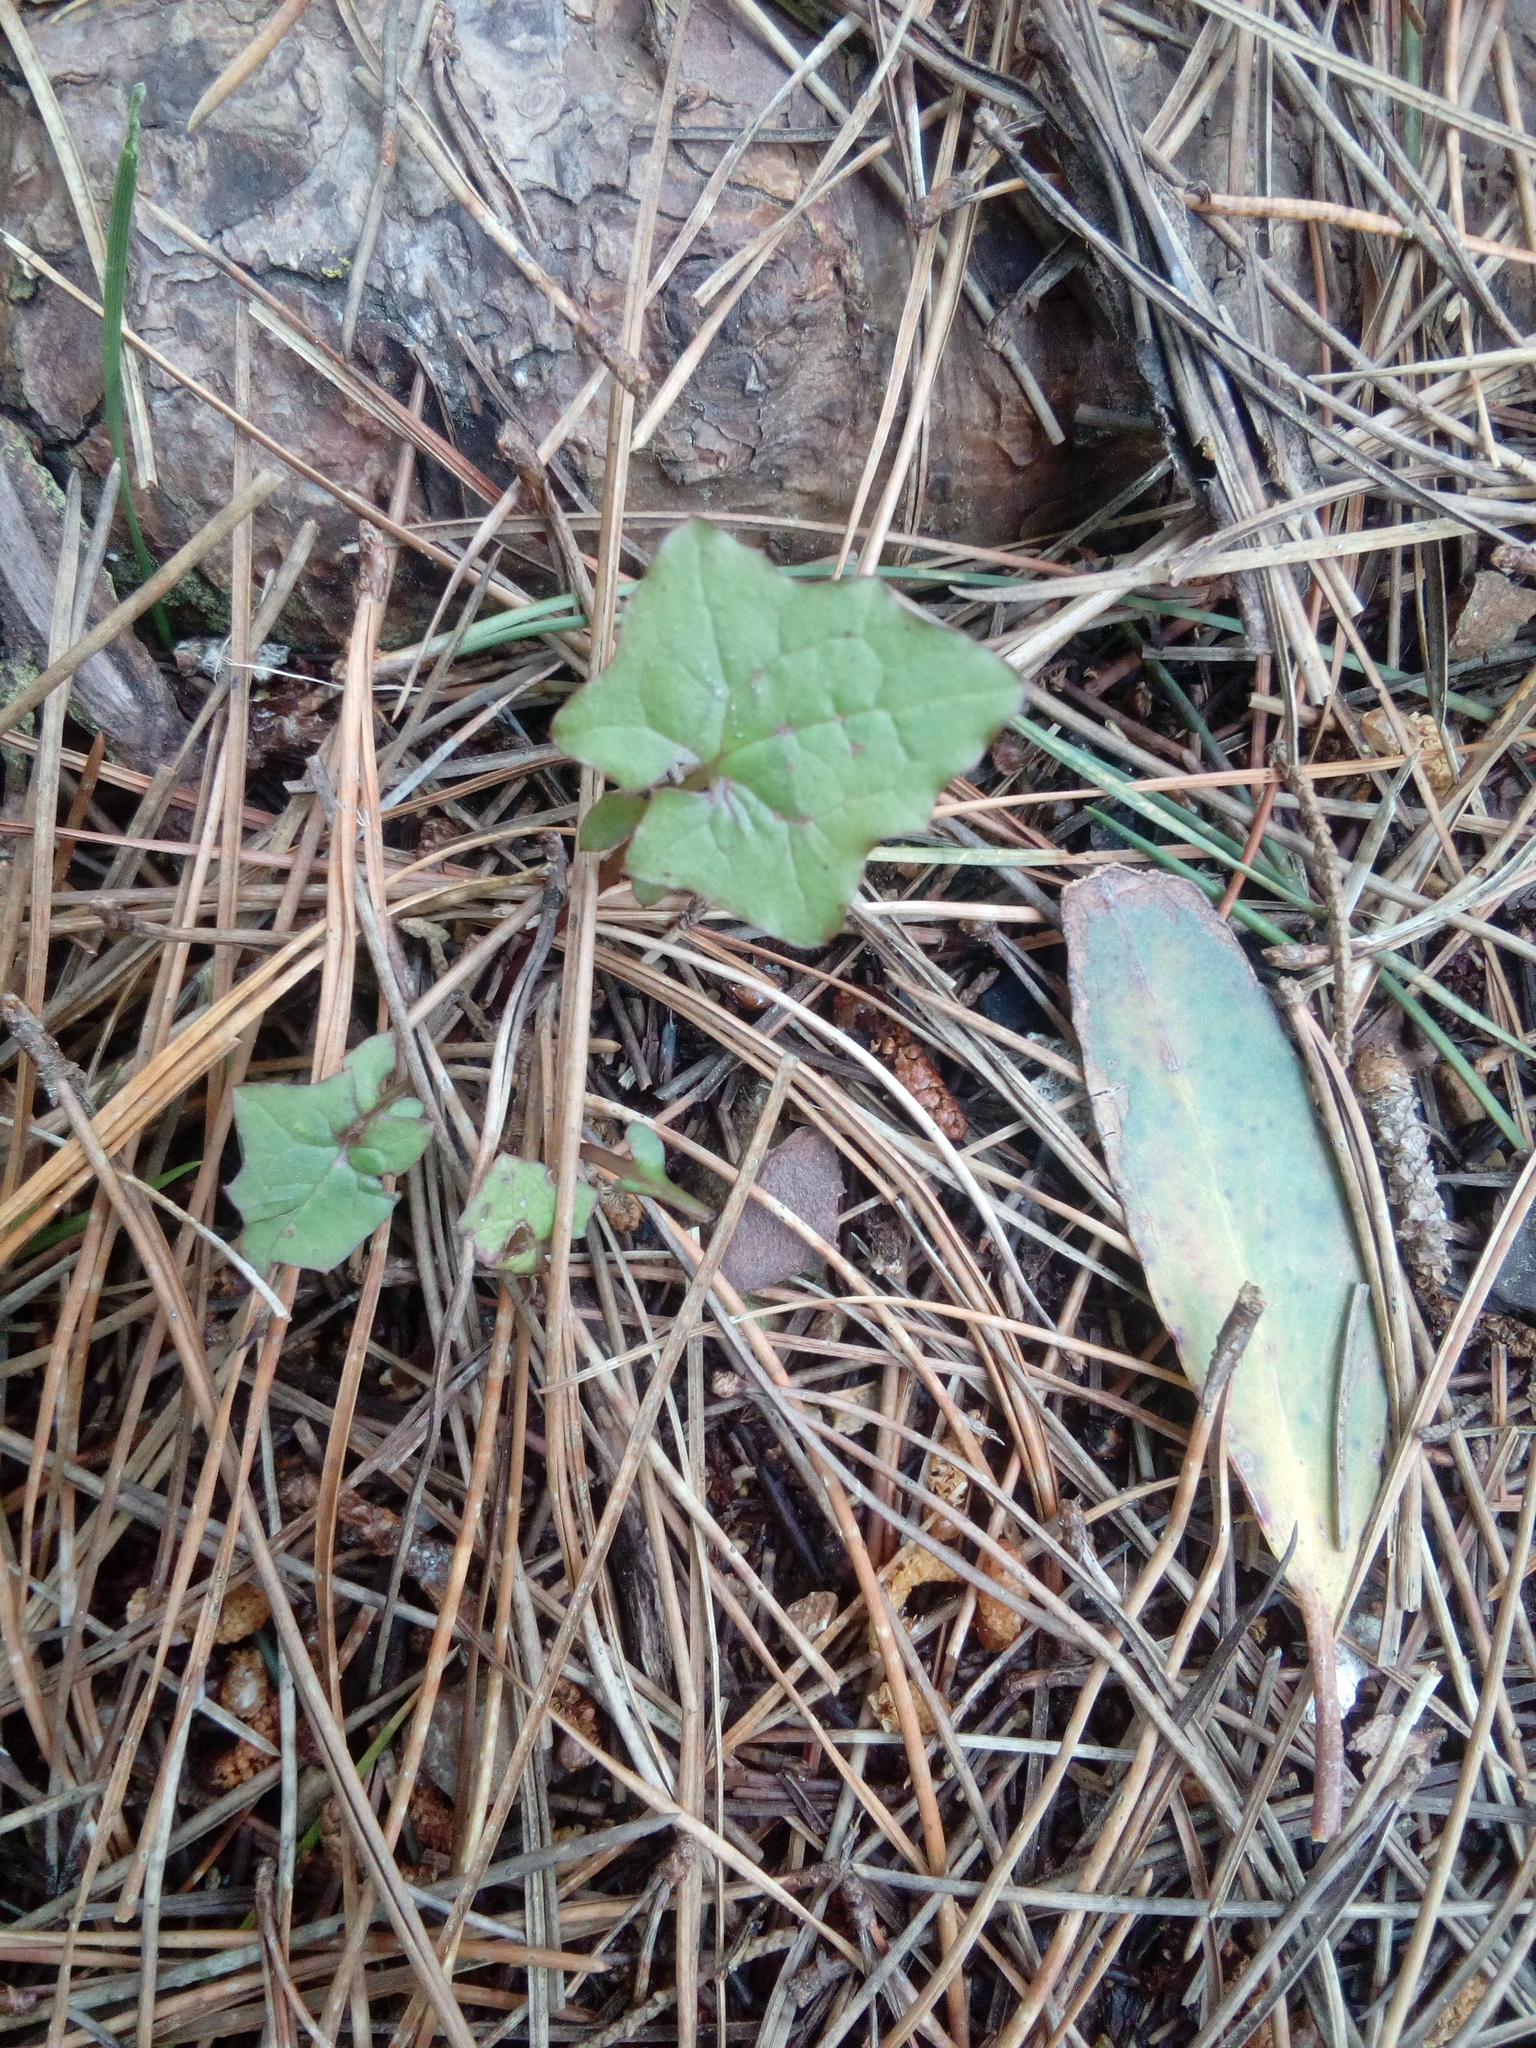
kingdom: Plantae
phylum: Tracheophyta
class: Magnoliopsida
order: Asterales
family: Asteraceae
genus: Mycelis
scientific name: Mycelis muralis
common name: Wall lettuce
